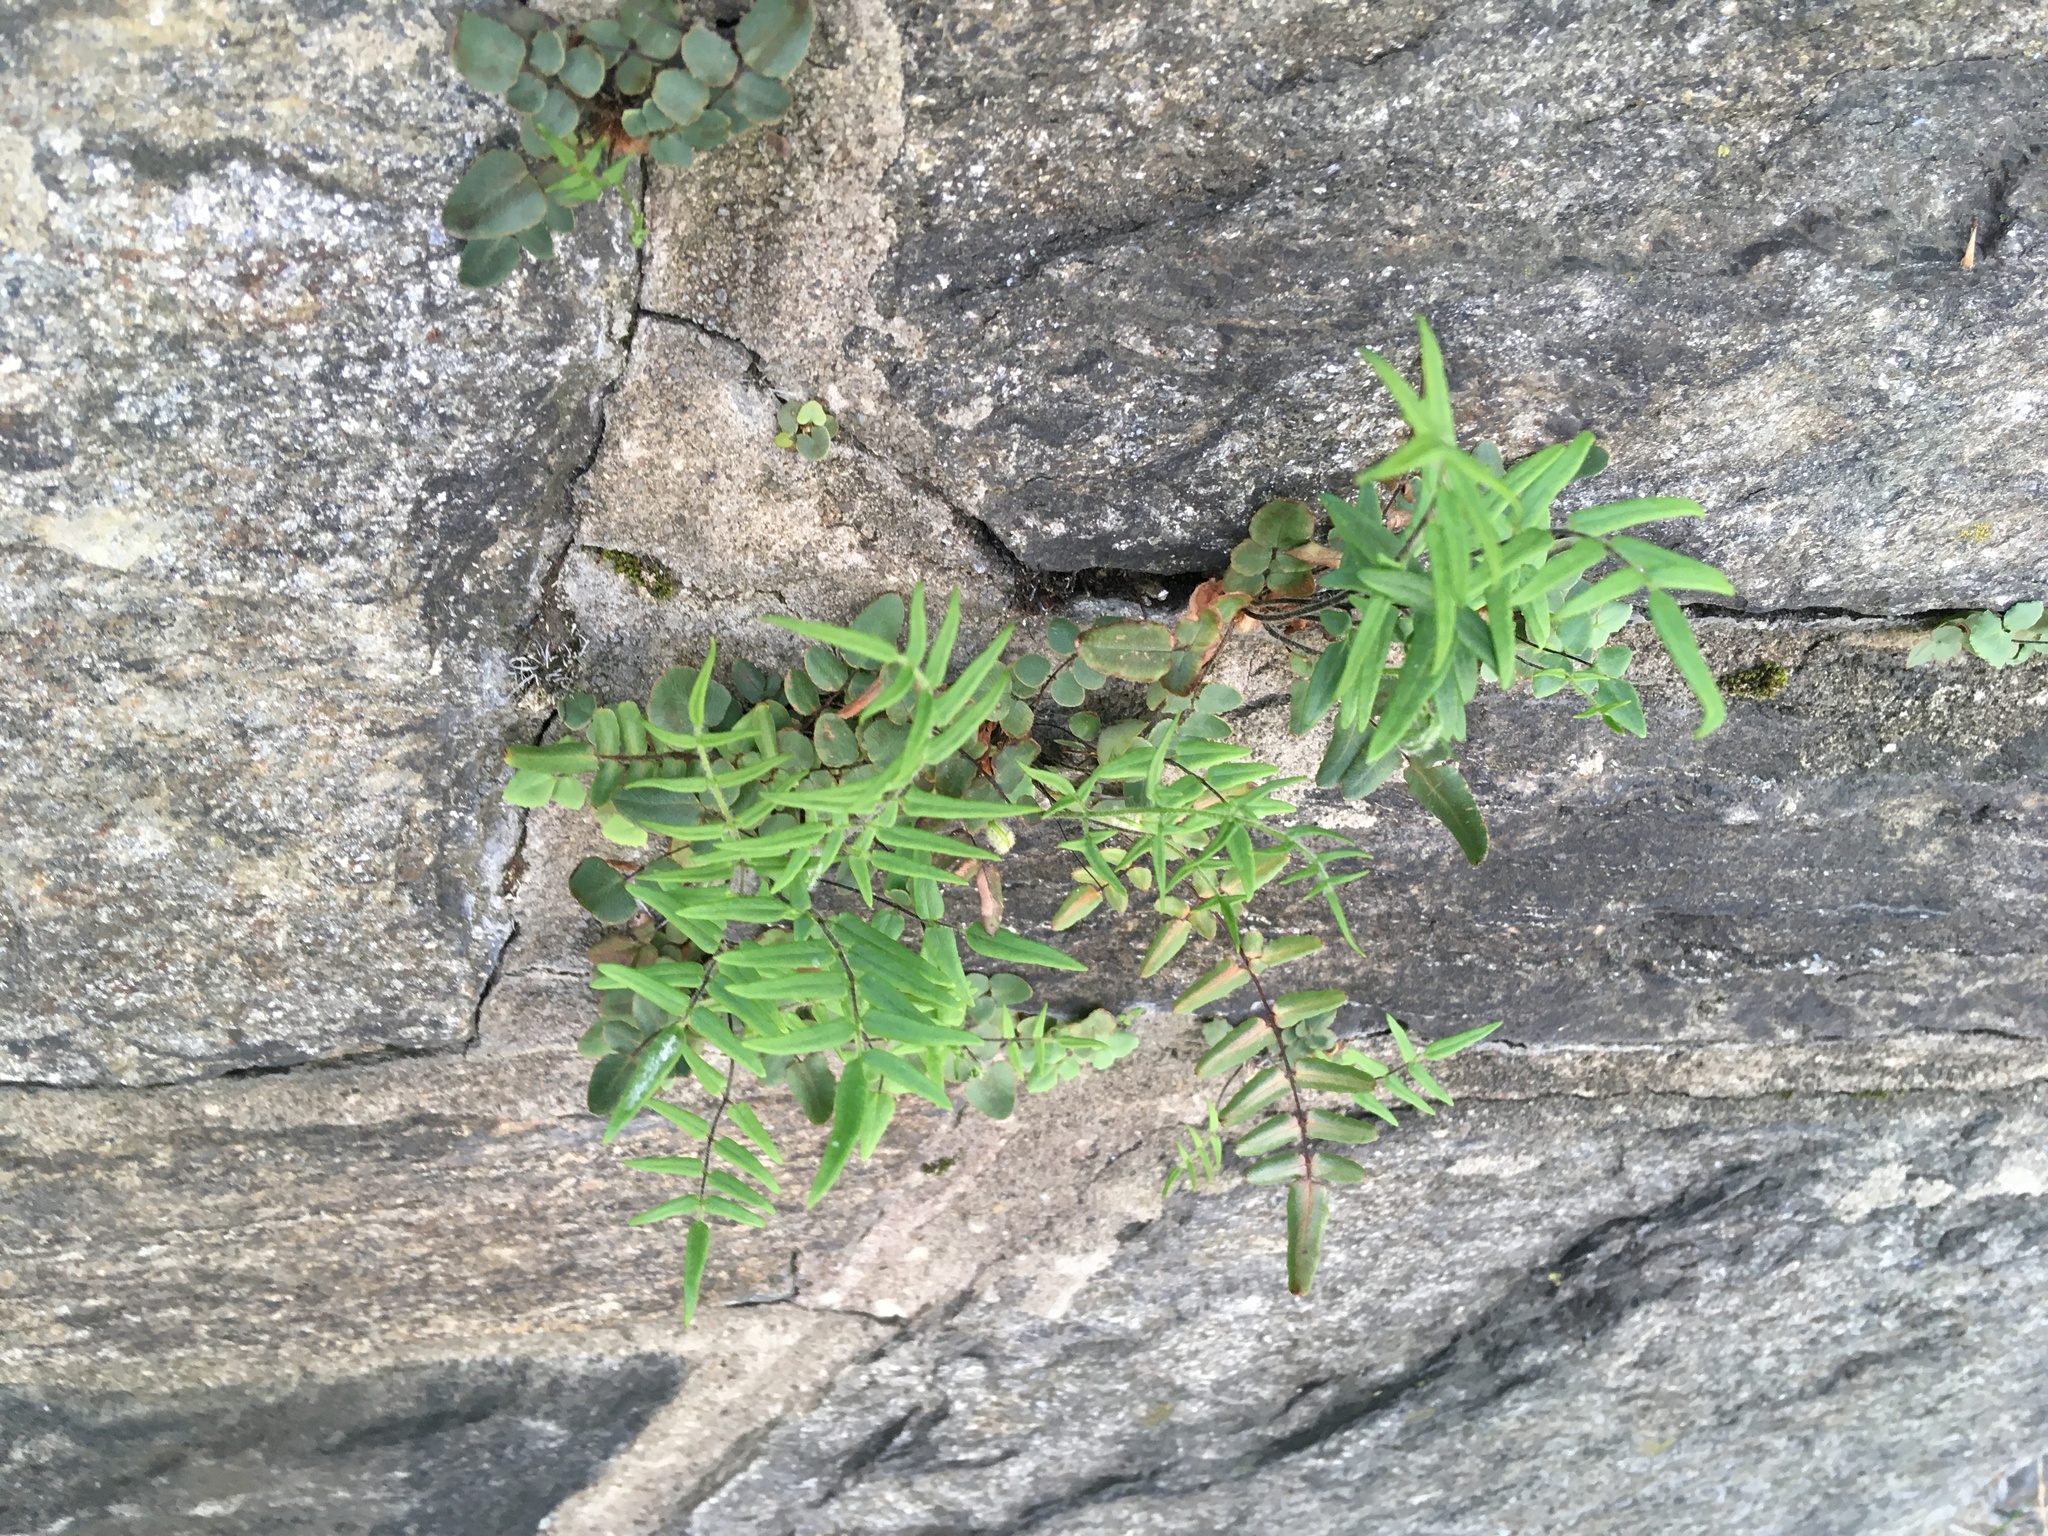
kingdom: Plantae
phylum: Tracheophyta
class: Polypodiopsida
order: Polypodiales
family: Pteridaceae
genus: Pellaea
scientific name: Pellaea atropurpurea
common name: Hairy cliffbrake
